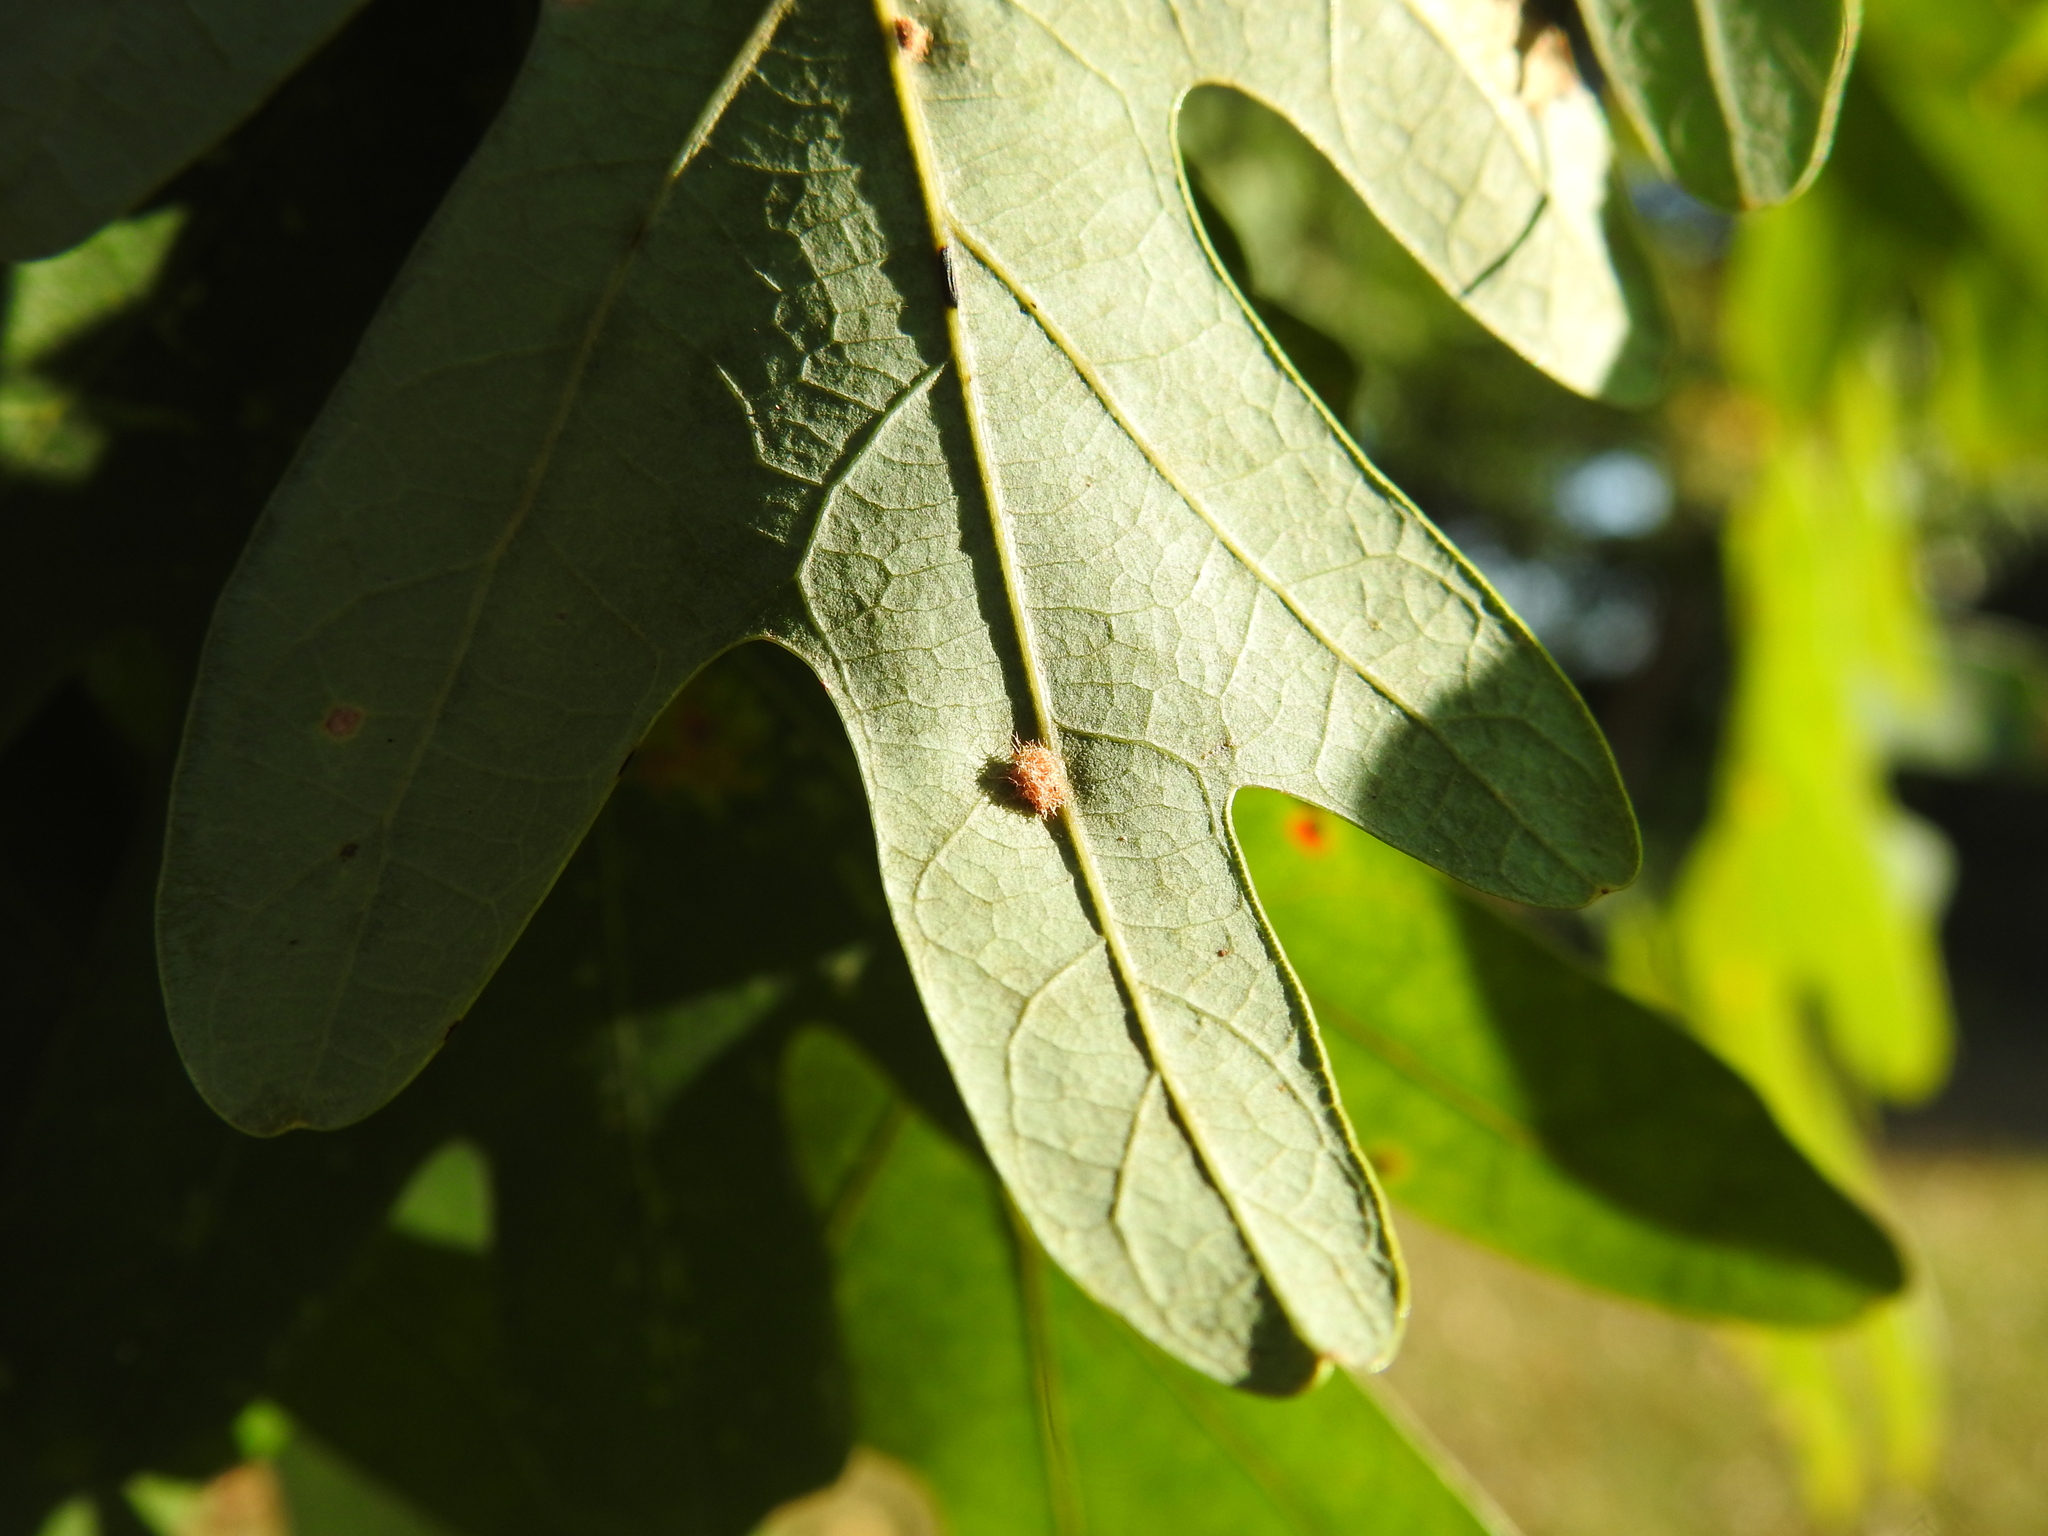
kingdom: Animalia
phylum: Arthropoda
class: Insecta
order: Hymenoptera
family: Cynipidae
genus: Andricus
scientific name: Andricus
